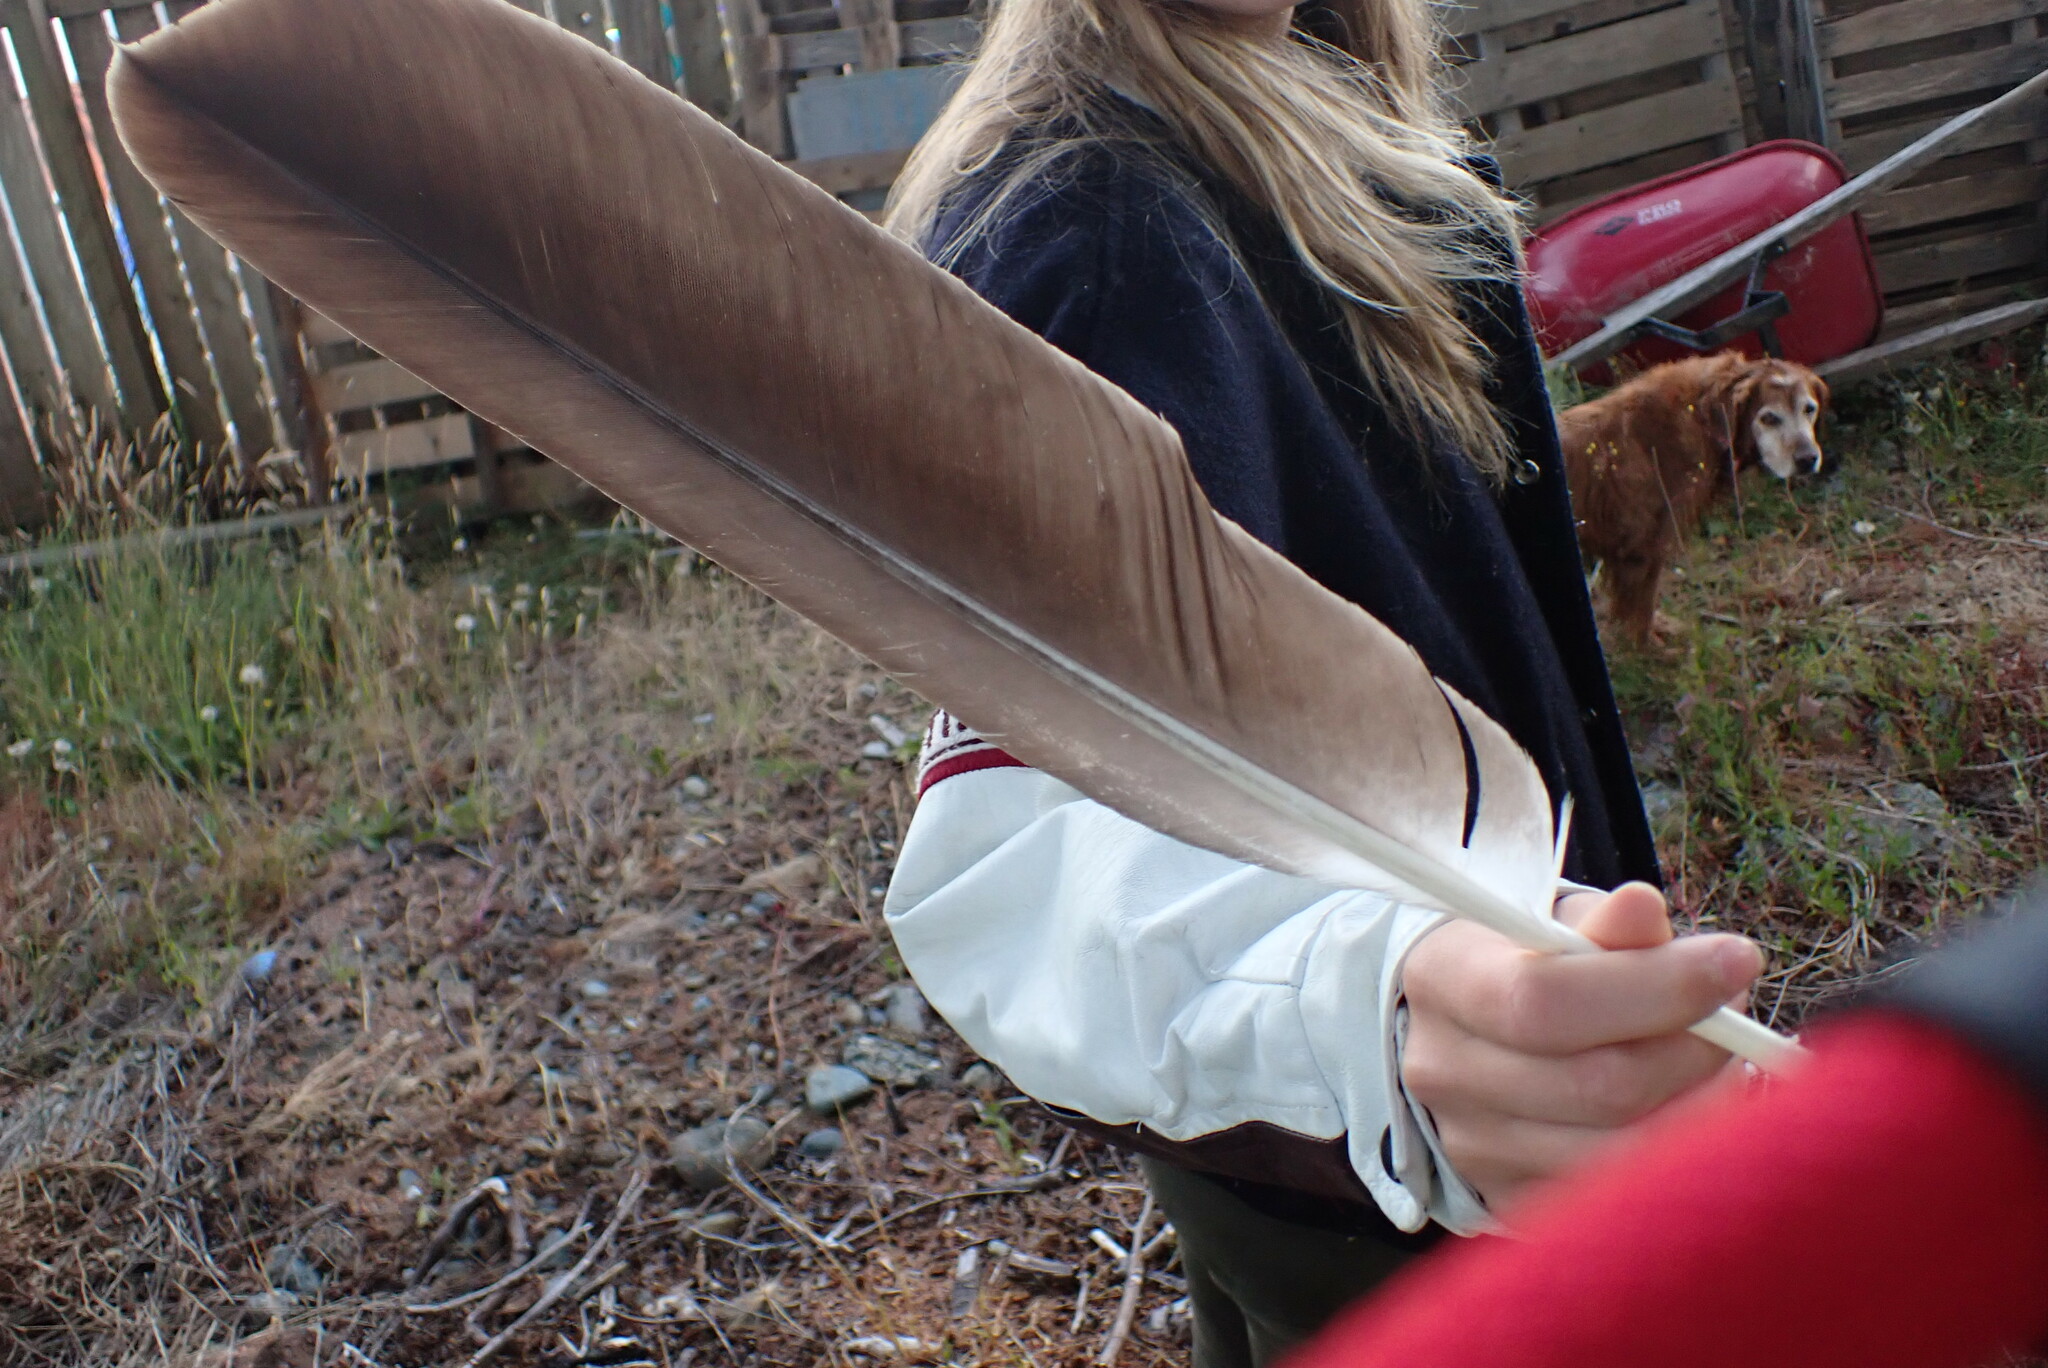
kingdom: Animalia
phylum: Chordata
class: Aves
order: Accipitriformes
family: Accipitridae
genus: Haliaeetus
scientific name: Haliaeetus leucocephalus
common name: Bald eagle
